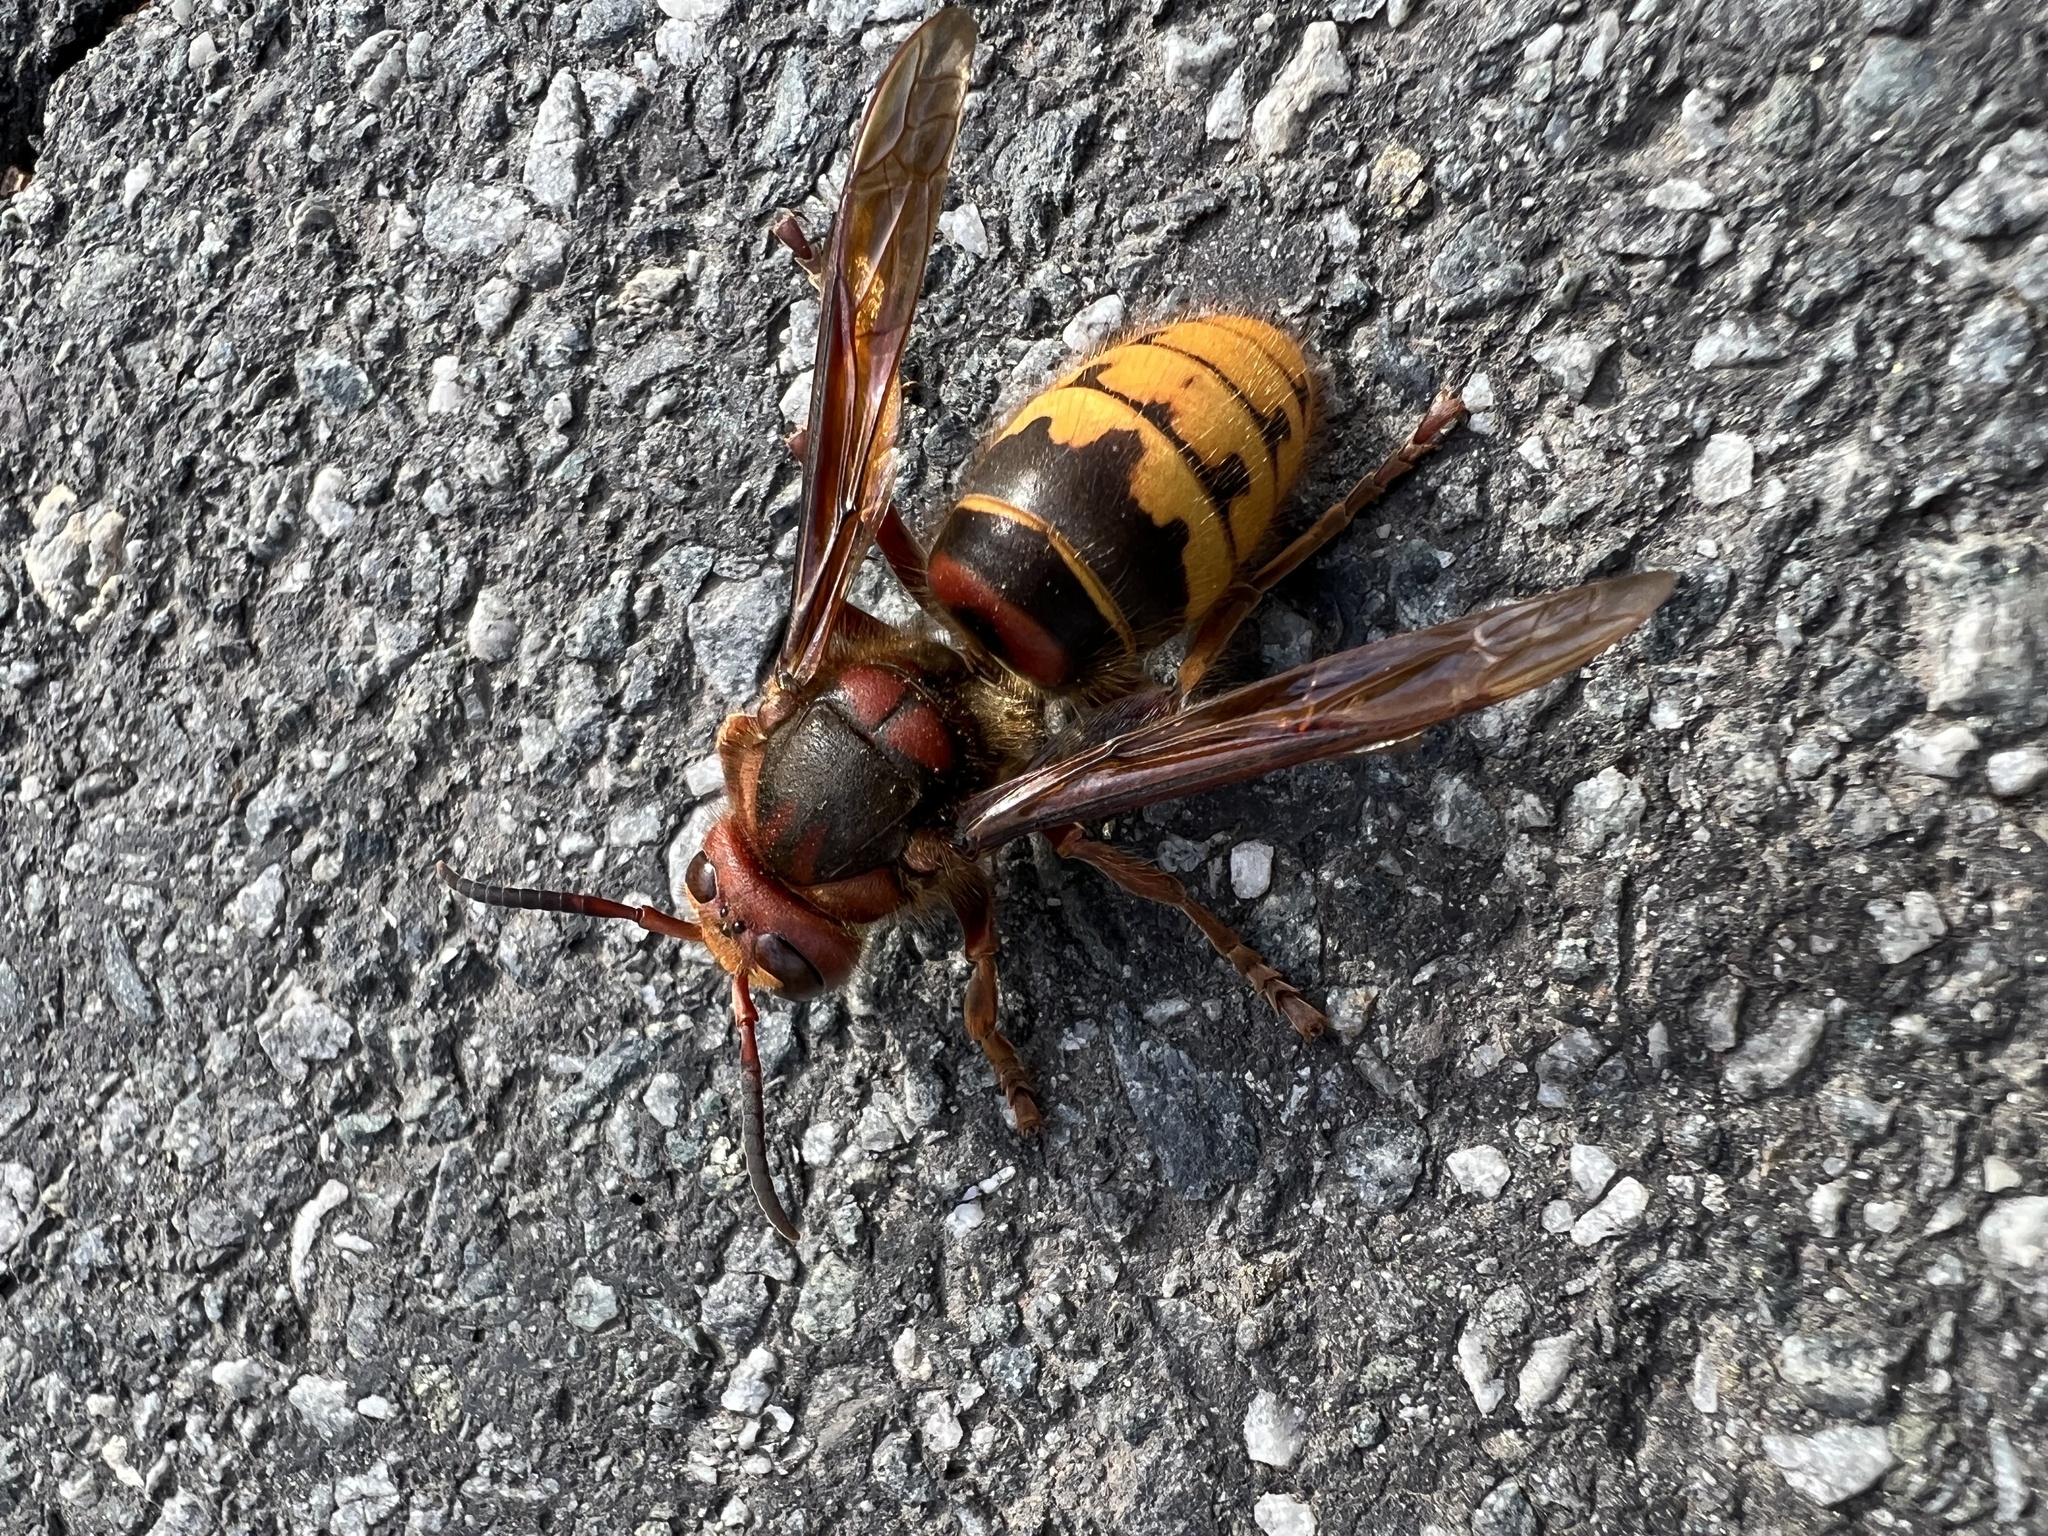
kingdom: Animalia
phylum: Arthropoda
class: Insecta
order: Hymenoptera
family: Vespidae
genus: Vespa
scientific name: Vespa crabro
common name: Hornet
